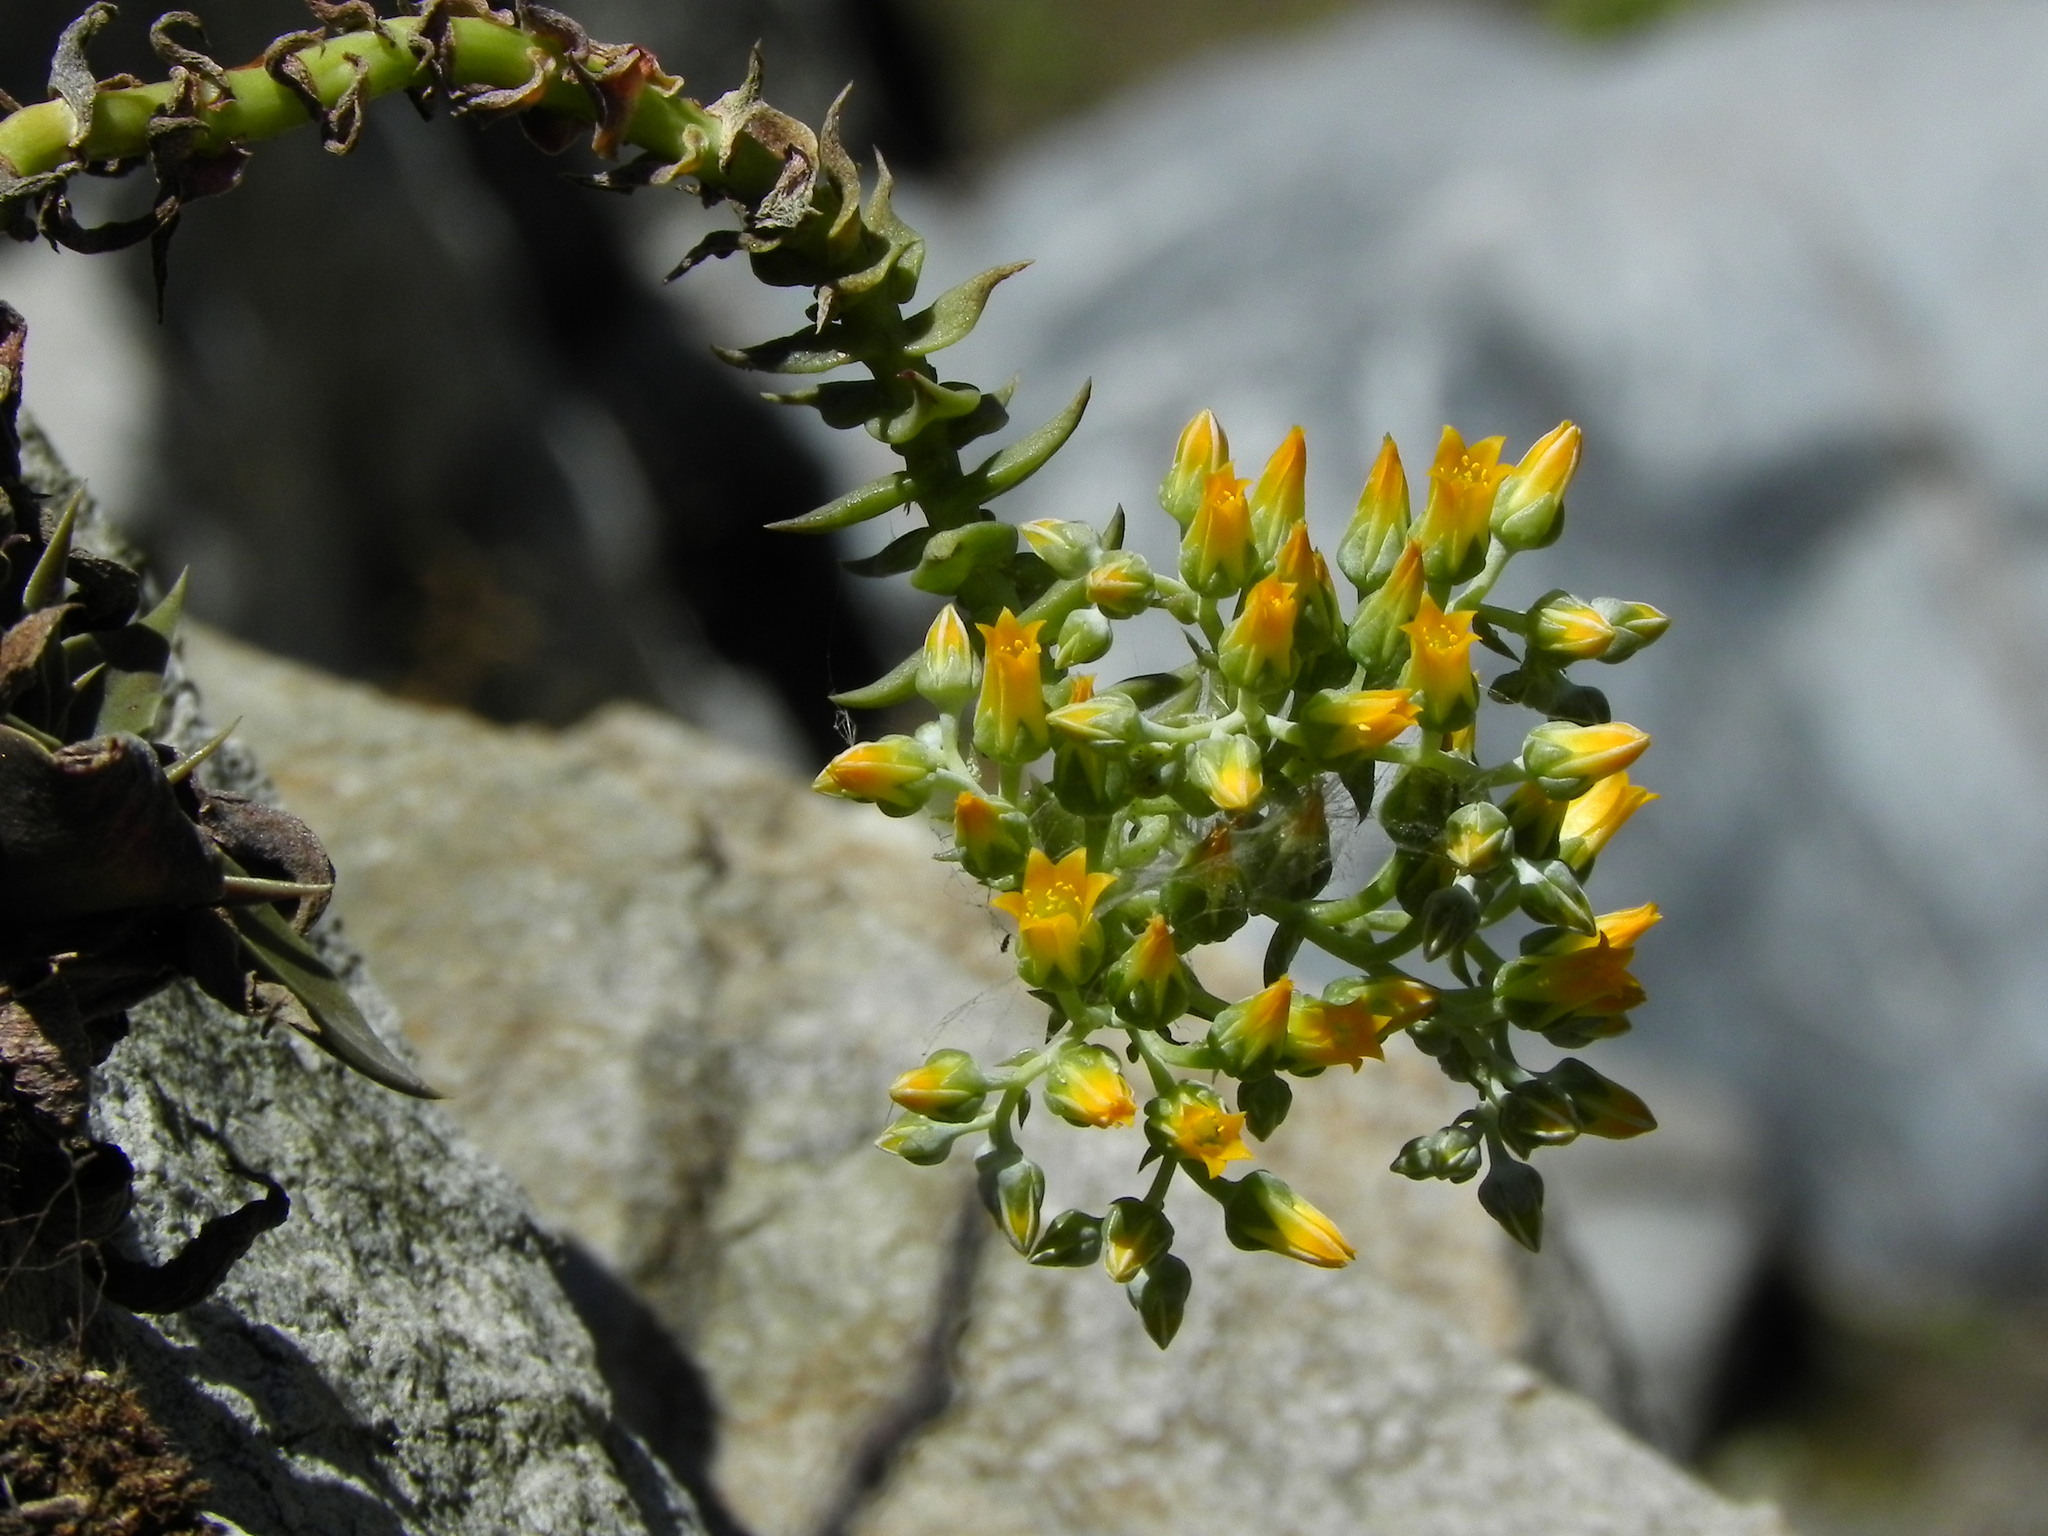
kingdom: Plantae
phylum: Tracheophyta
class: Magnoliopsida
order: Saxifragales
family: Crassulaceae
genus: Dudleya
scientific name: Dudleya cymosa
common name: Canyon dudleya
